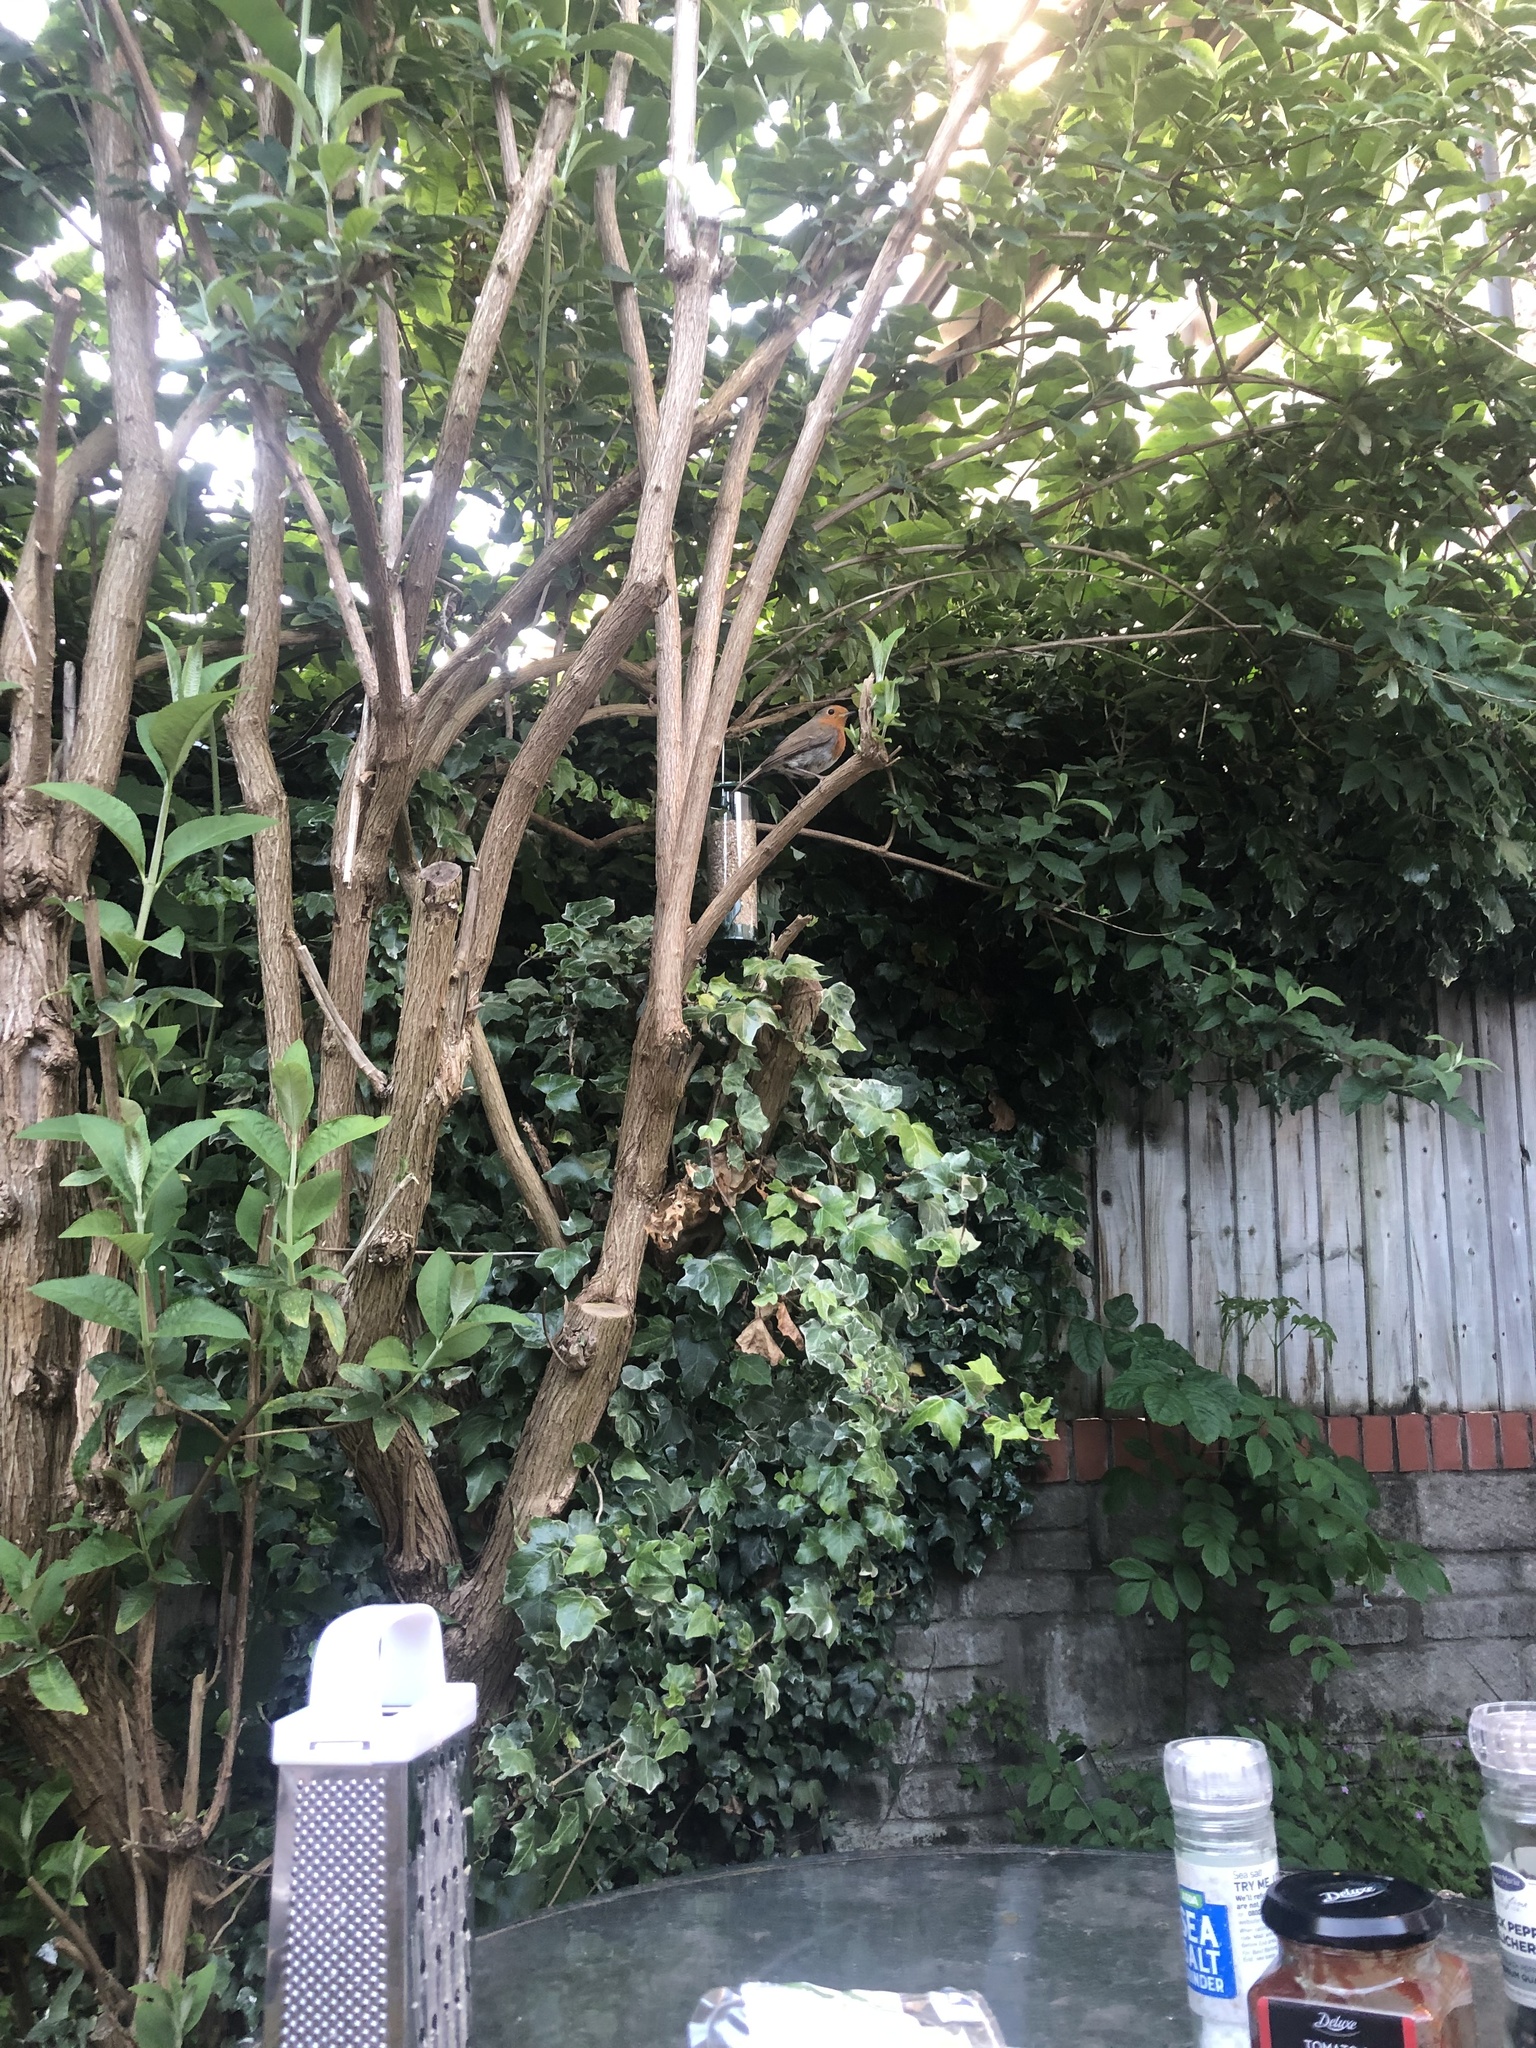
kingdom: Animalia
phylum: Chordata
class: Aves
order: Passeriformes
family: Muscicapidae
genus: Erithacus
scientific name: Erithacus rubecula
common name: European robin
